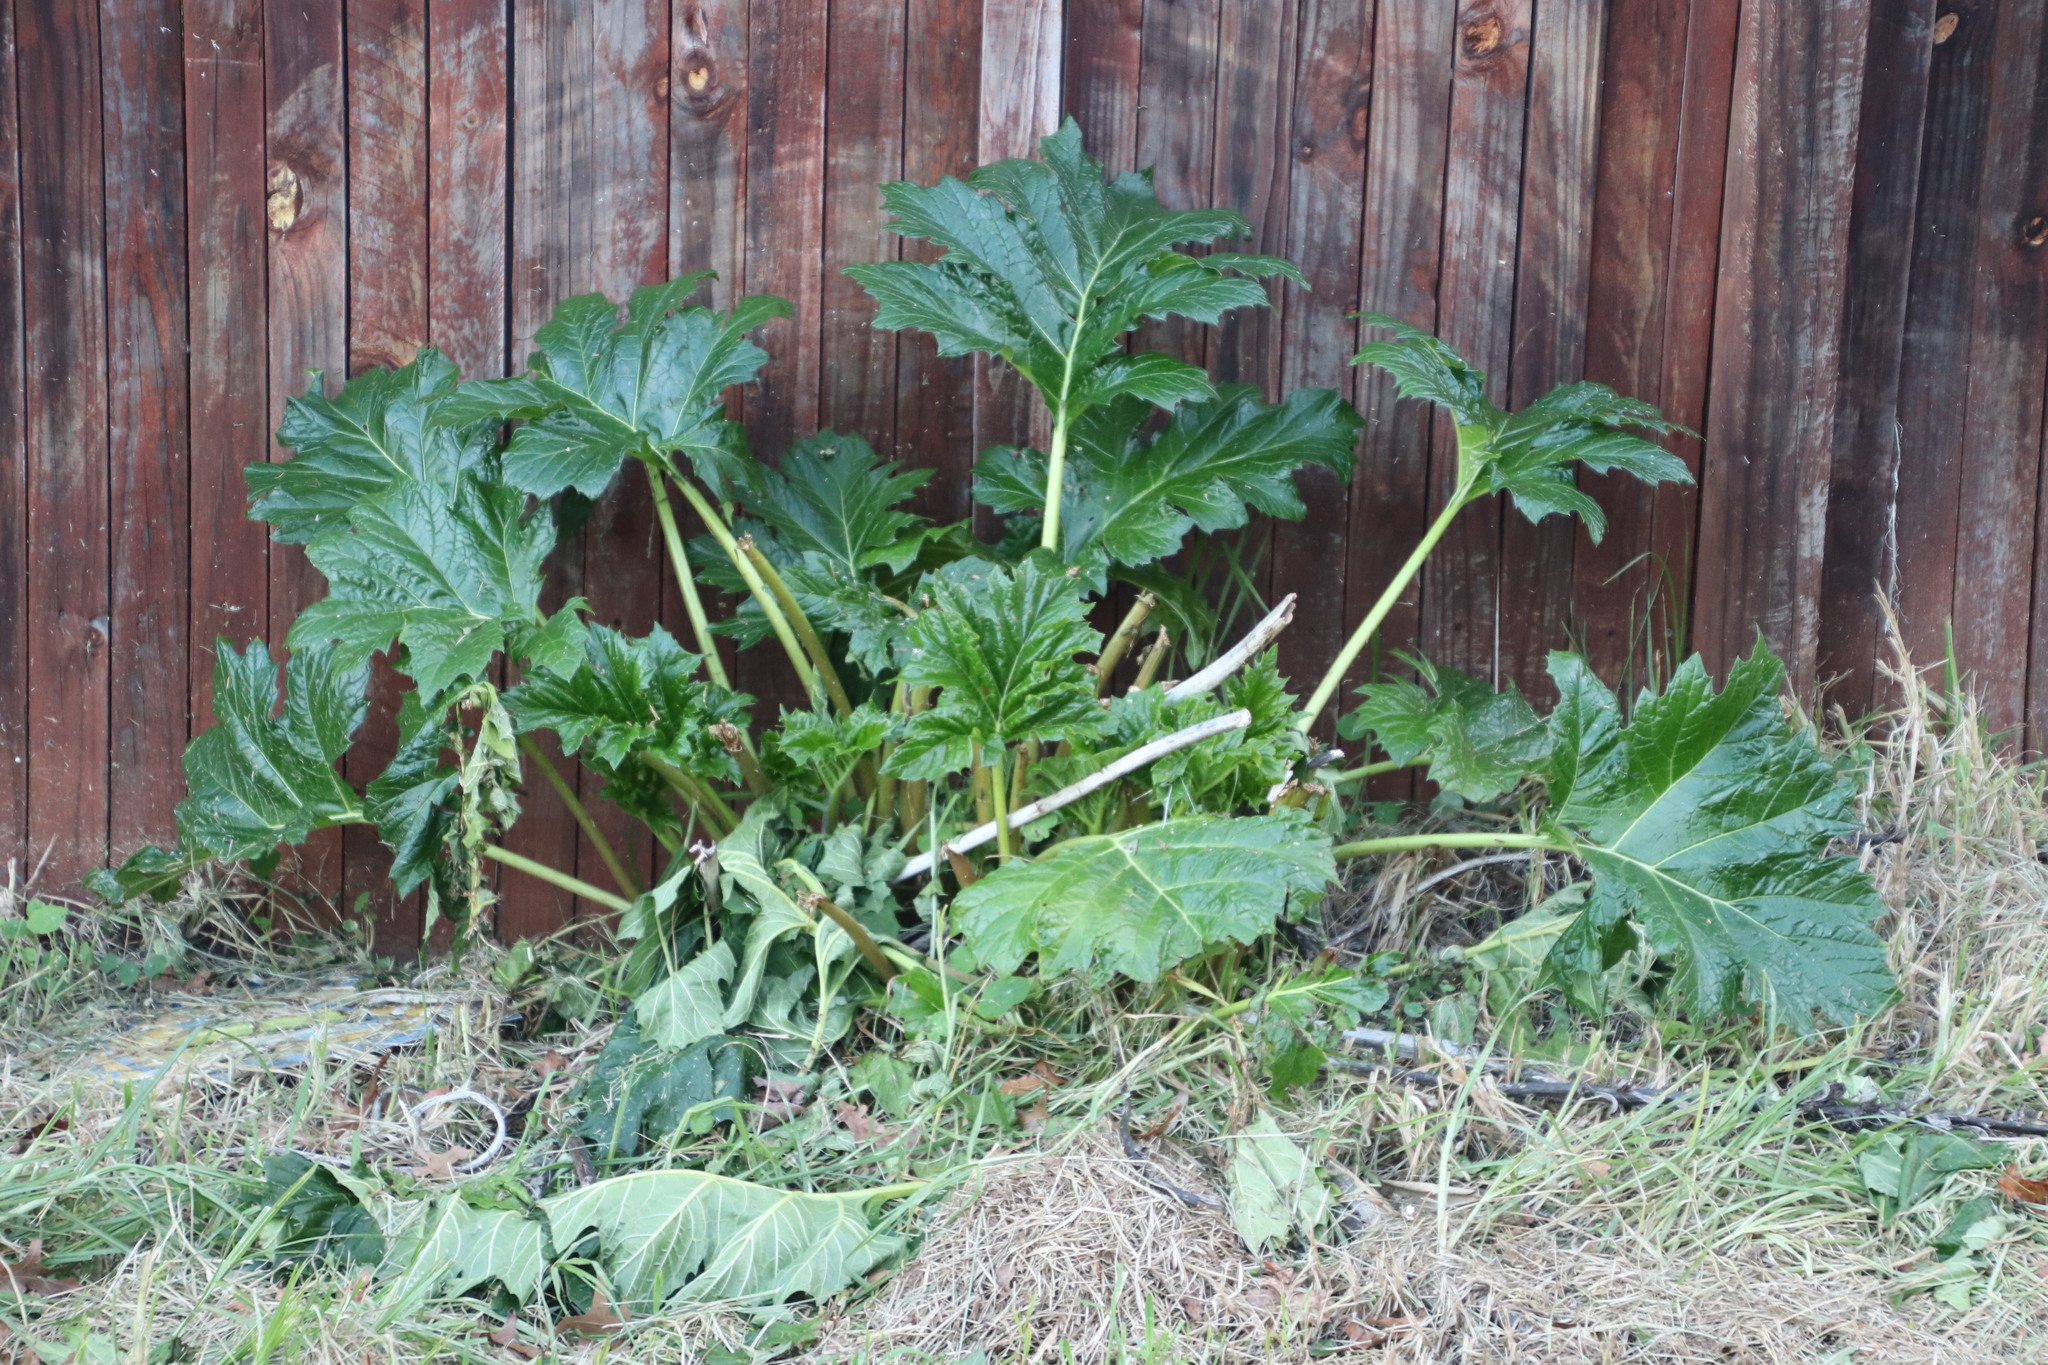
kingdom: Plantae
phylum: Tracheophyta
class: Magnoliopsida
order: Lamiales
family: Acanthaceae
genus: Acanthus
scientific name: Acanthus mollis
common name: Bear's-breech
